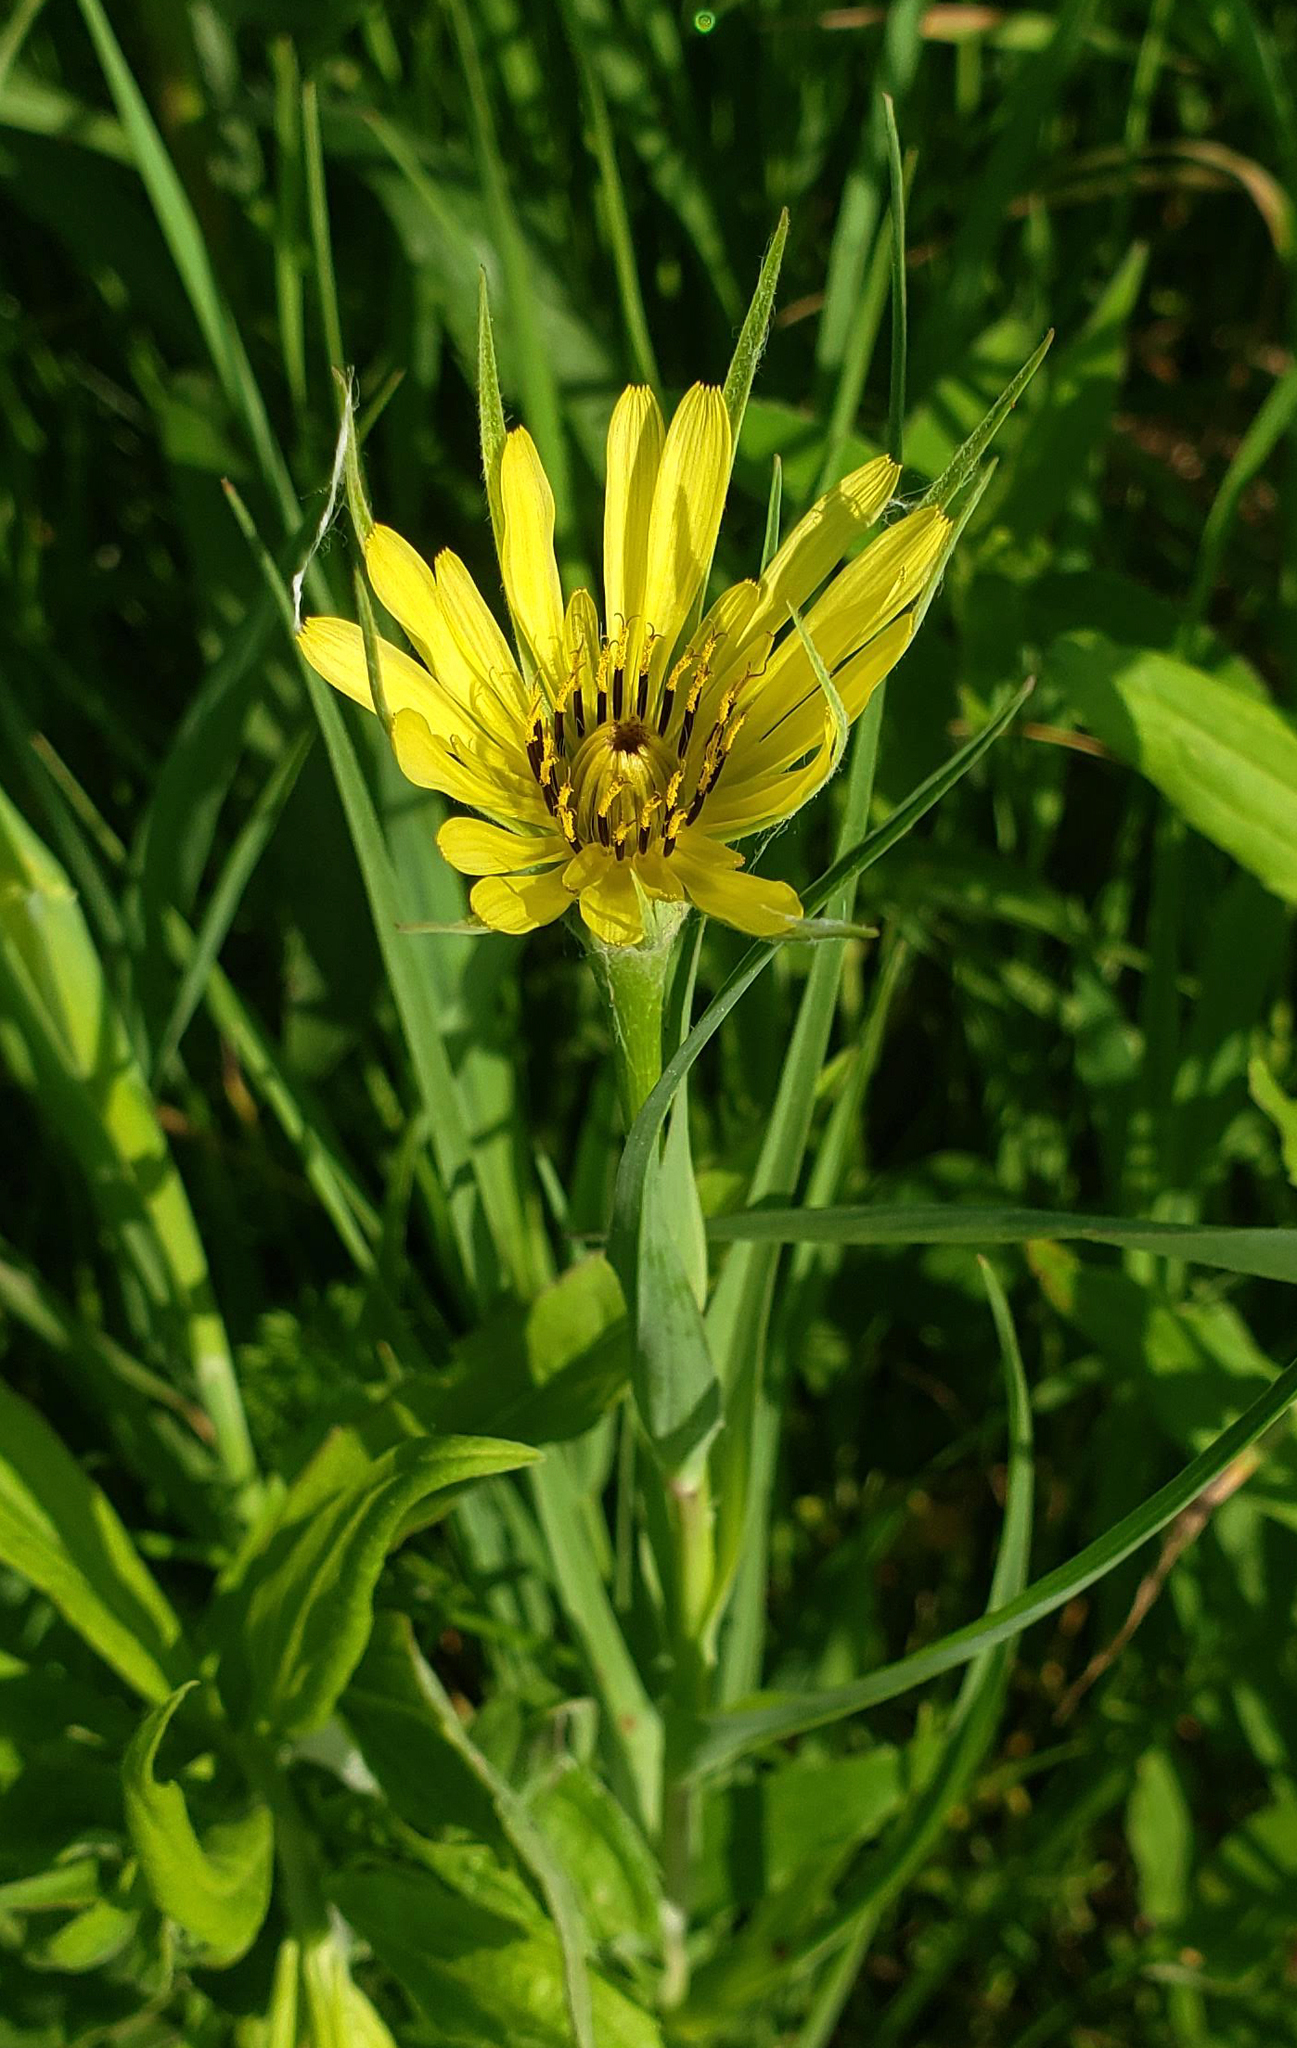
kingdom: Plantae
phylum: Tracheophyta
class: Magnoliopsida
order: Asterales
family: Asteraceae
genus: Tragopogon
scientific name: Tragopogon dubius
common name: Yellow salsify
